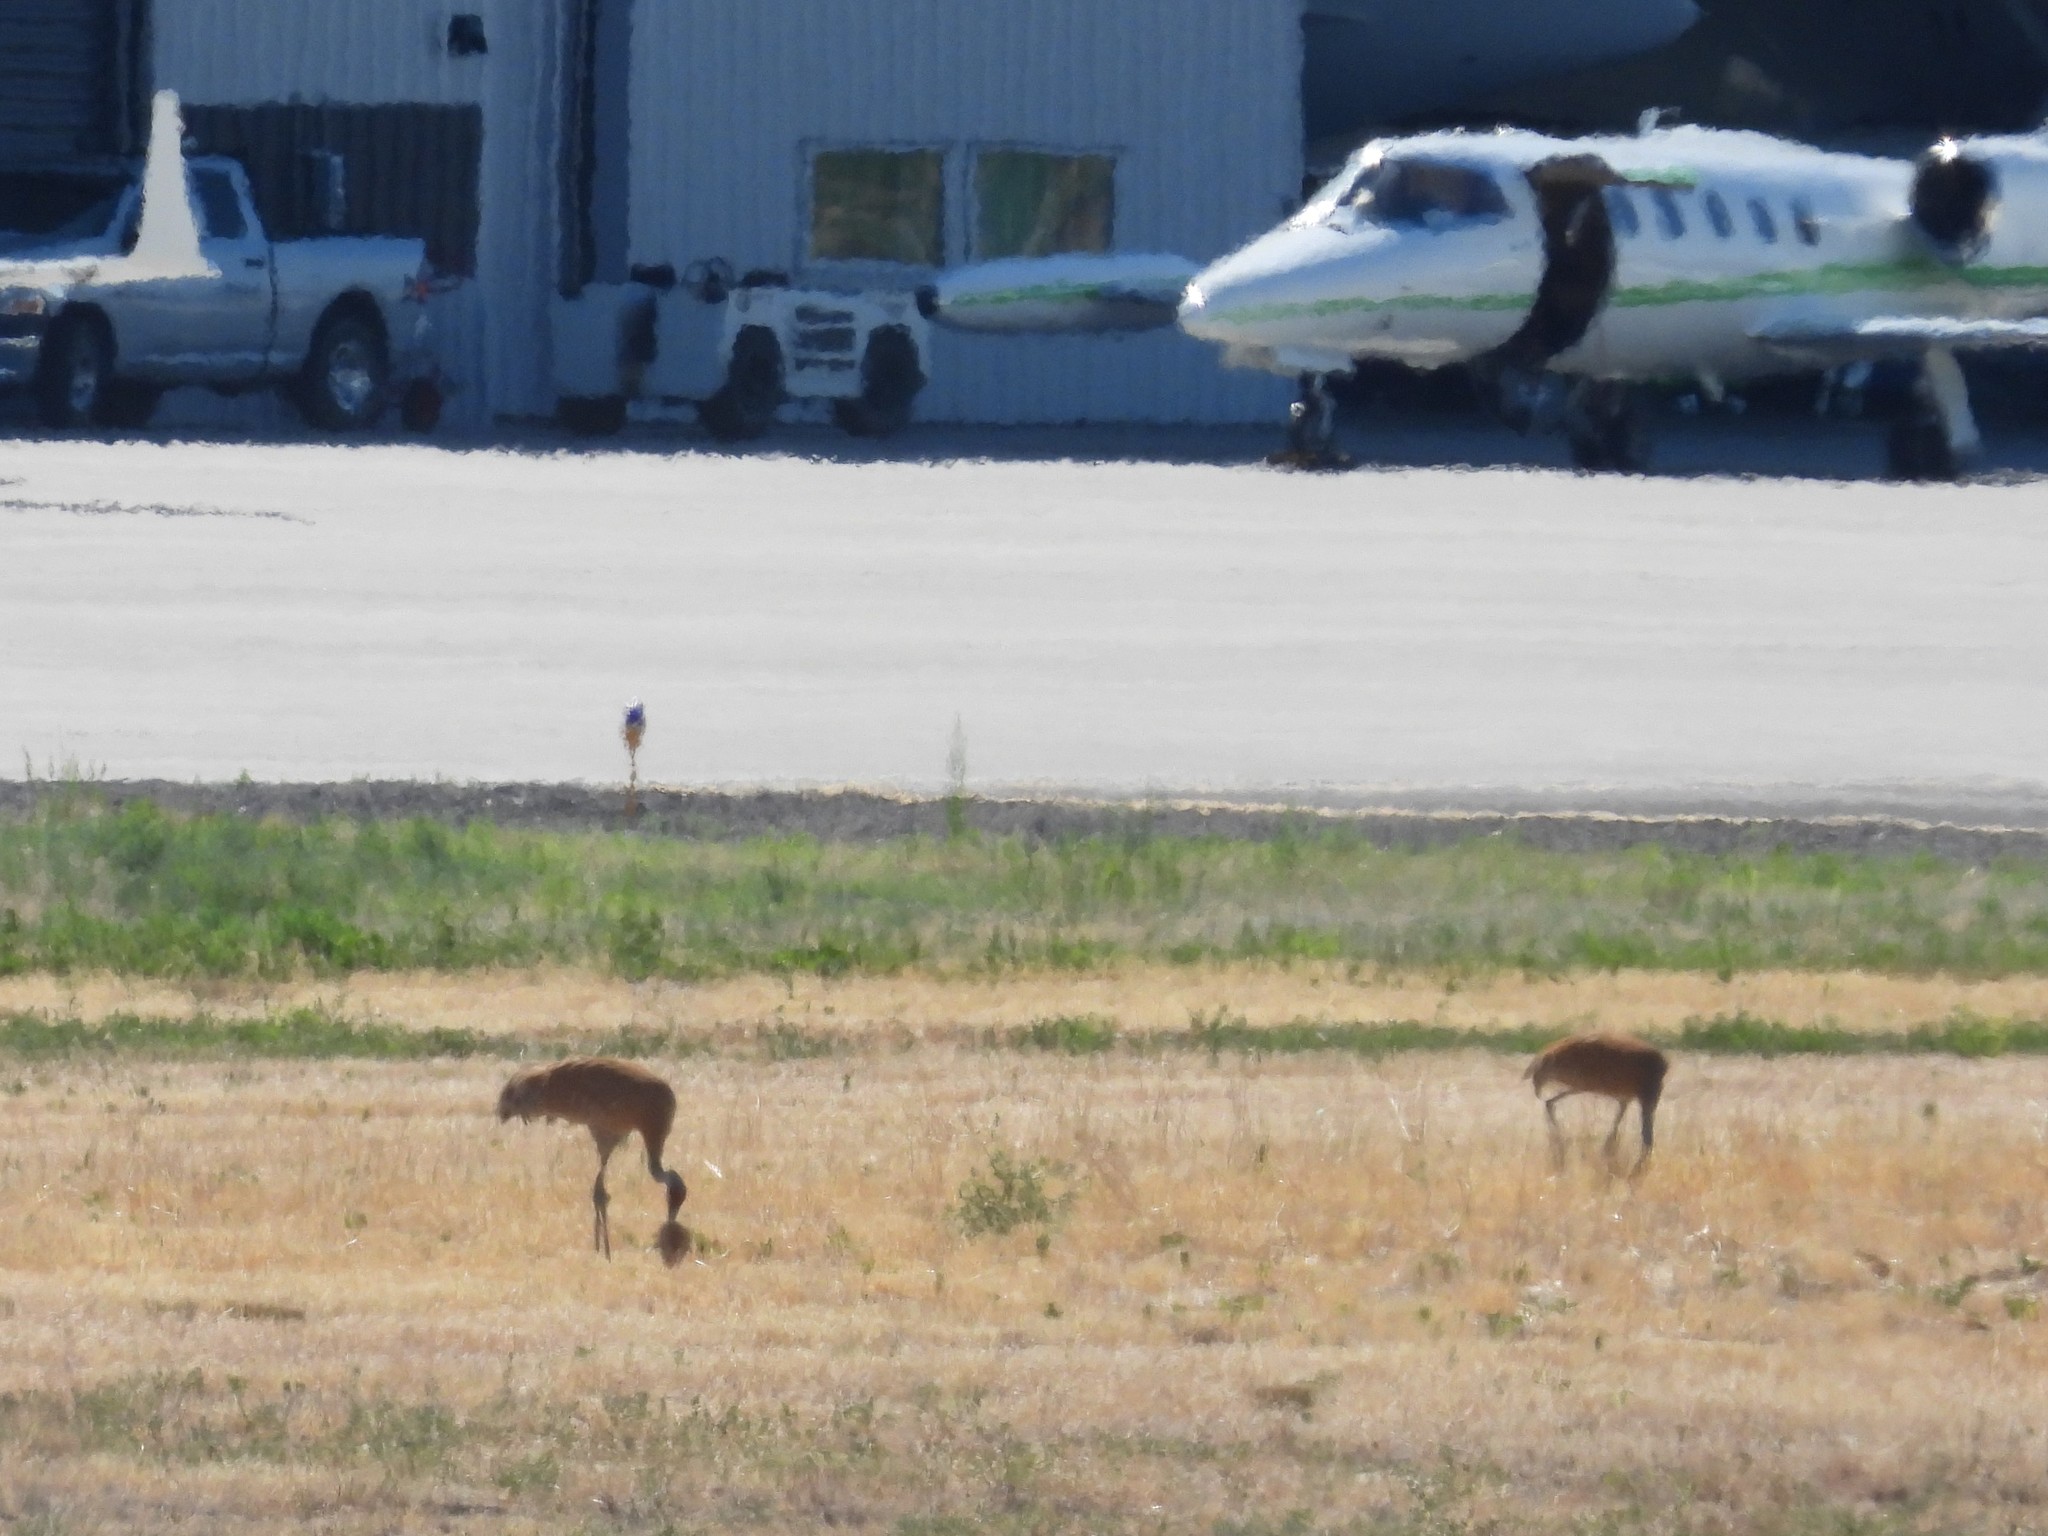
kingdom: Animalia
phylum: Chordata
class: Aves
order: Gruiformes
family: Gruidae
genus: Grus
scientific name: Grus canadensis
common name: Sandhill crane
